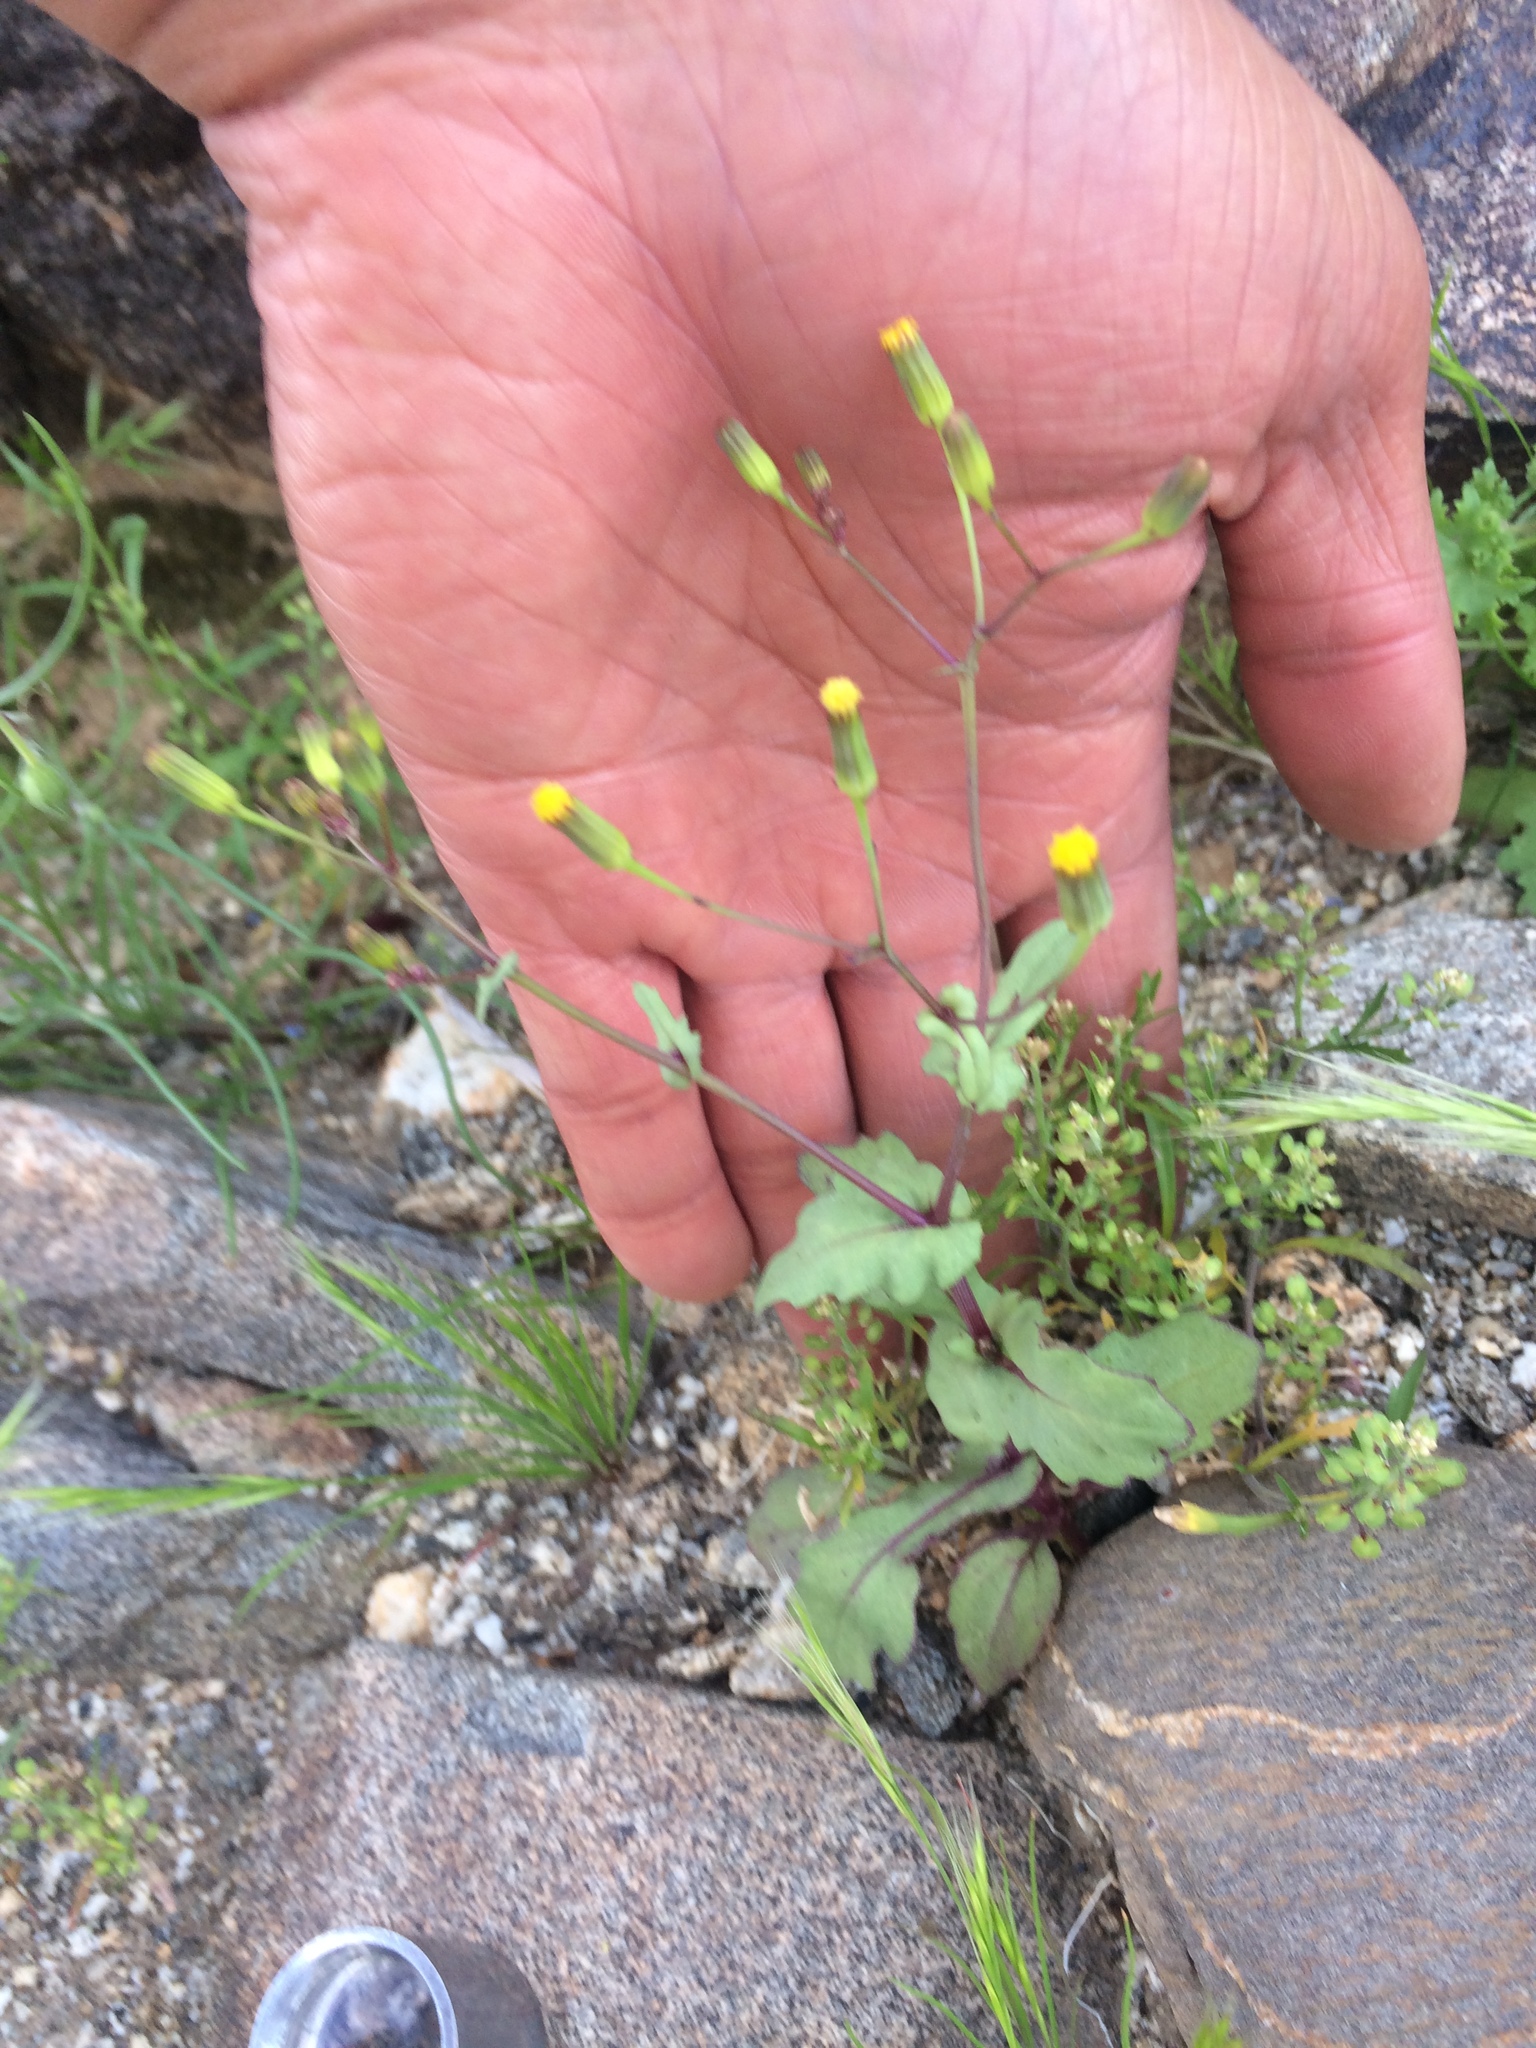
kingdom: Plantae
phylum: Tracheophyta
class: Magnoliopsida
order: Asterales
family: Asteraceae
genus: Senecio
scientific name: Senecio mohavensis
